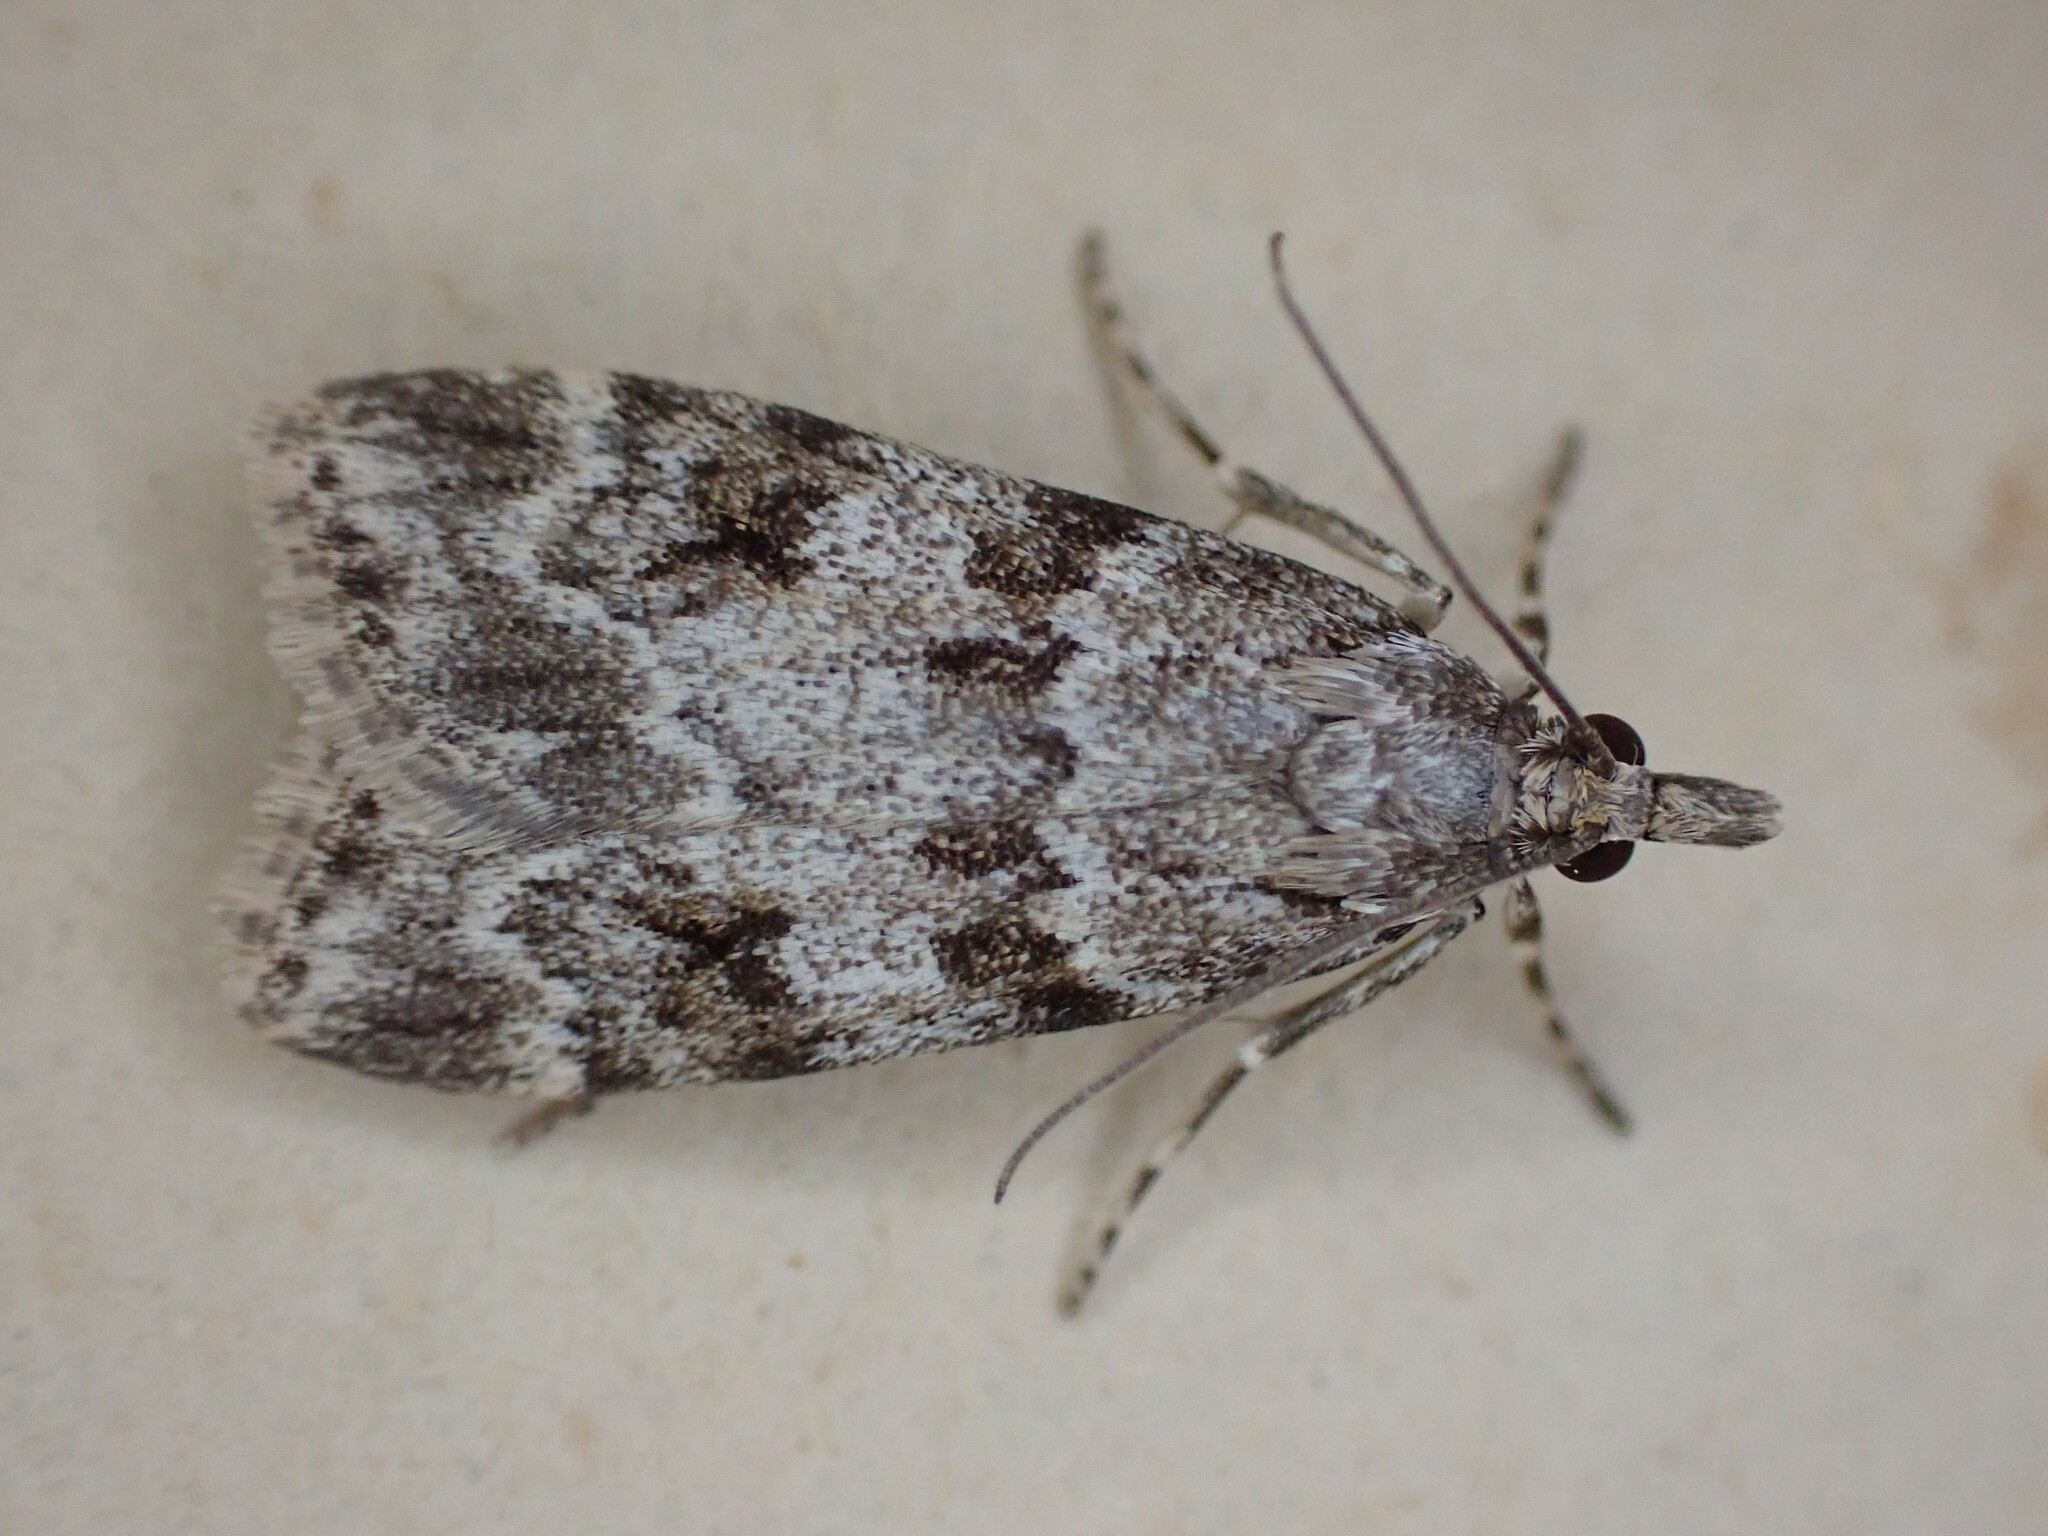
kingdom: Animalia
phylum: Arthropoda
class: Insecta
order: Lepidoptera
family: Crambidae
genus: Scoparia
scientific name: Scoparia ambigualis
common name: Common grey
